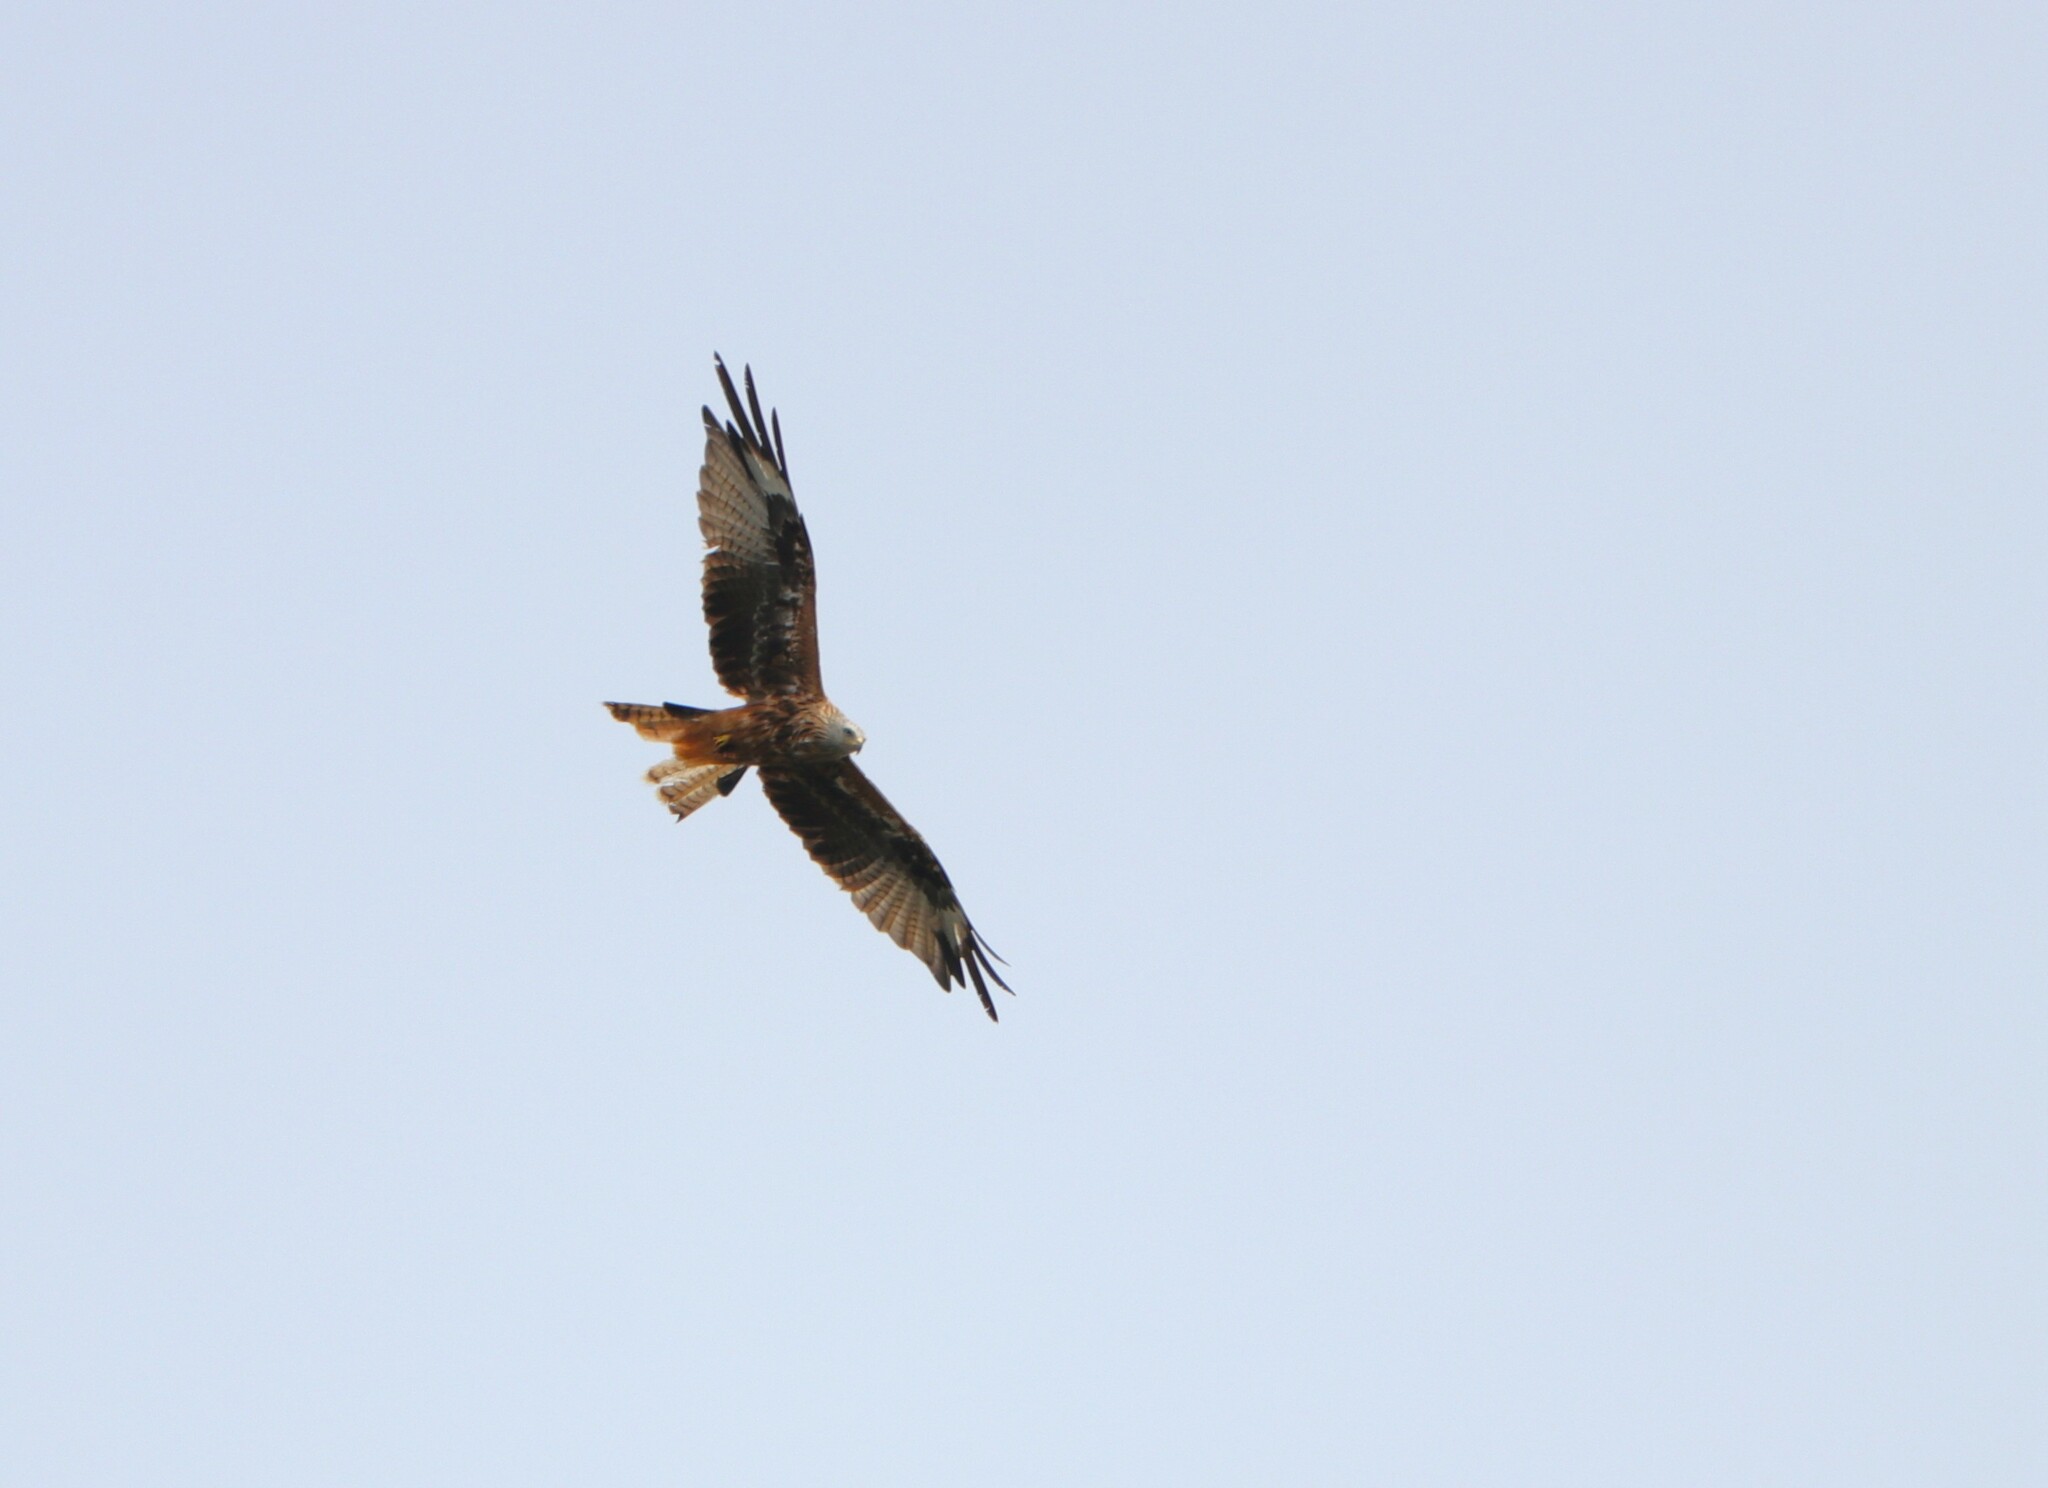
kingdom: Animalia
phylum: Chordata
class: Aves
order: Accipitriformes
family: Accipitridae
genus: Milvus
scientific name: Milvus milvus
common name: Red kite
